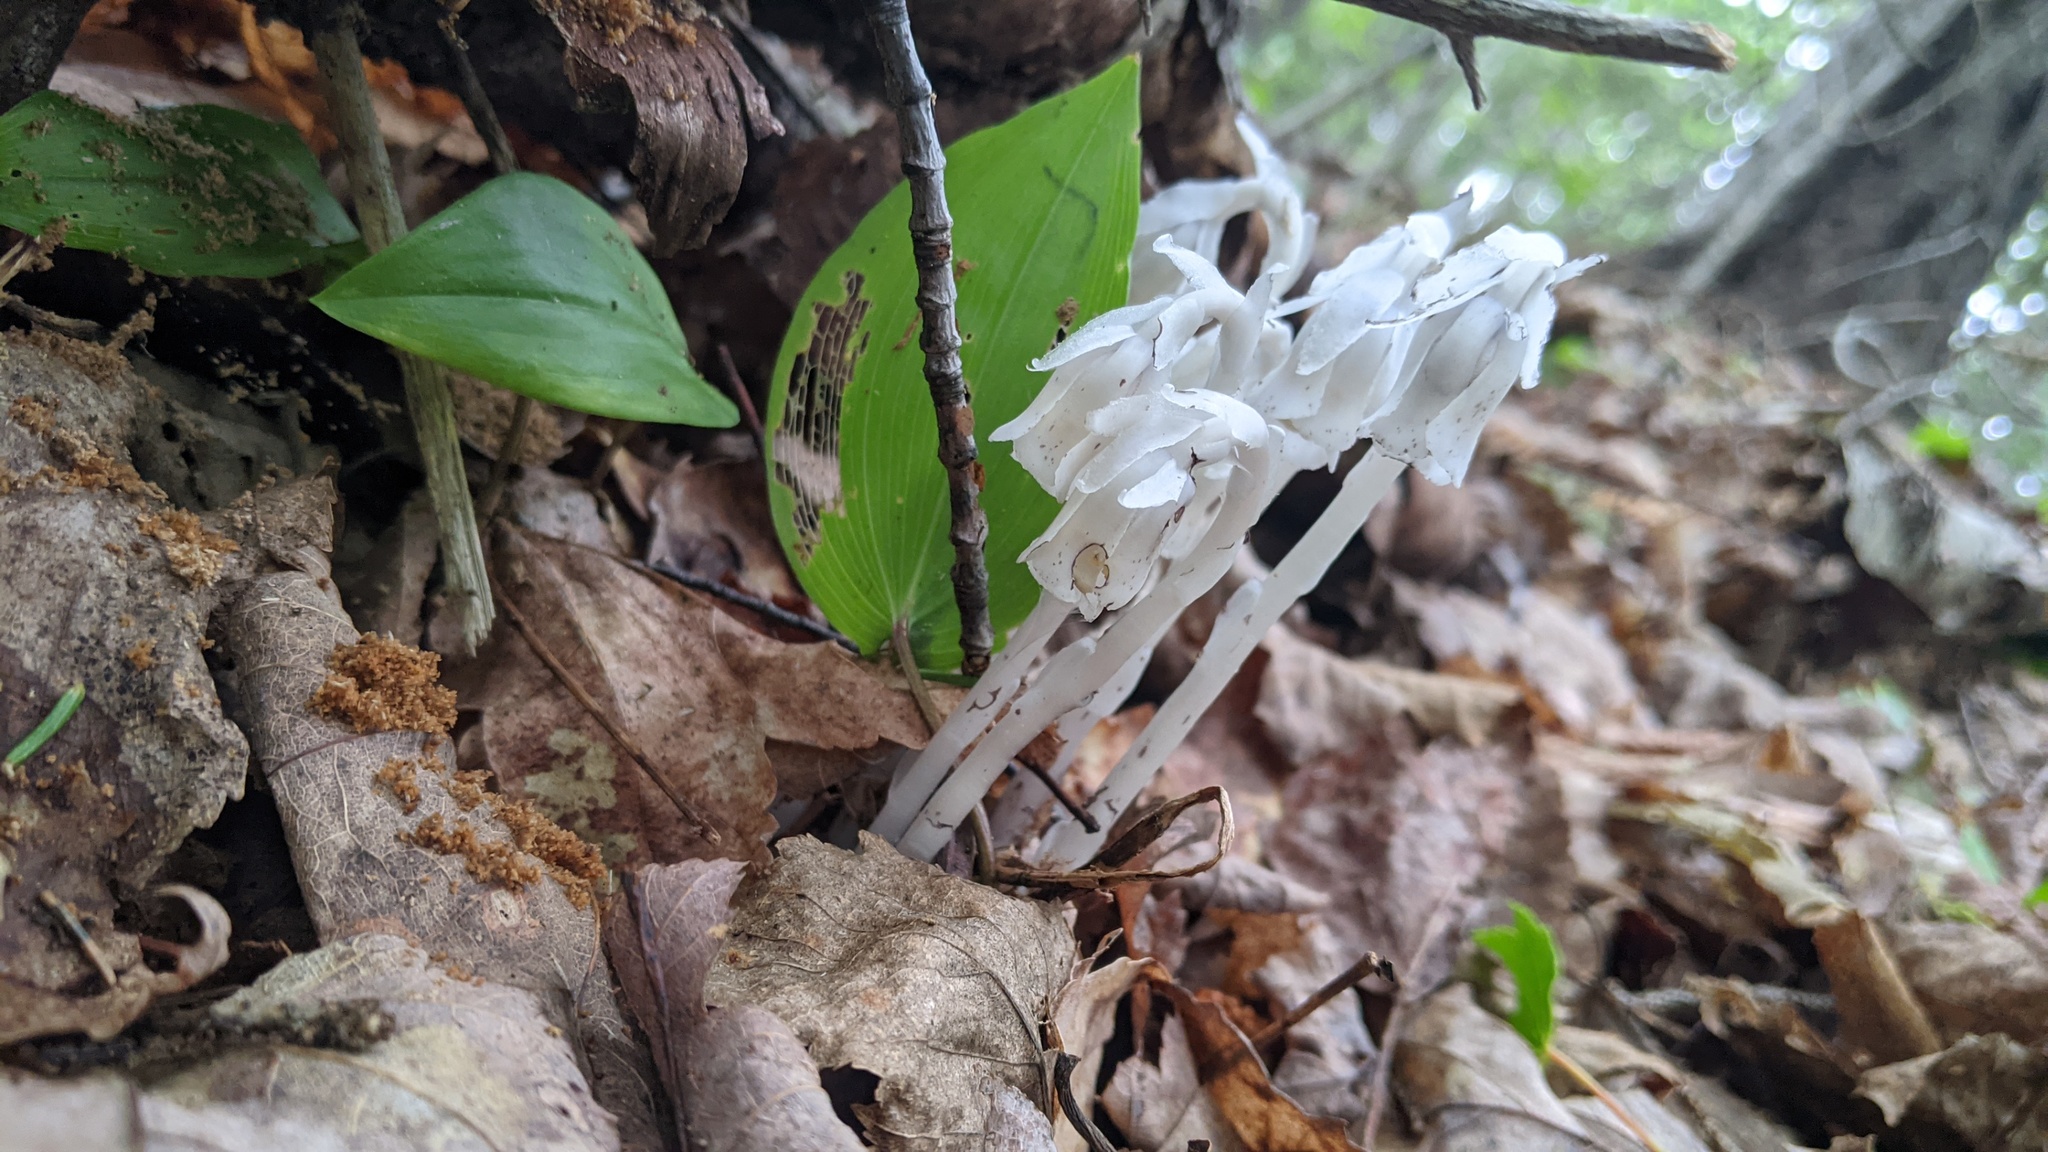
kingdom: Plantae
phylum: Tracheophyta
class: Magnoliopsida
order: Ericales
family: Ericaceae
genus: Monotropa
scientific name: Monotropa uniflora
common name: Convulsion root
